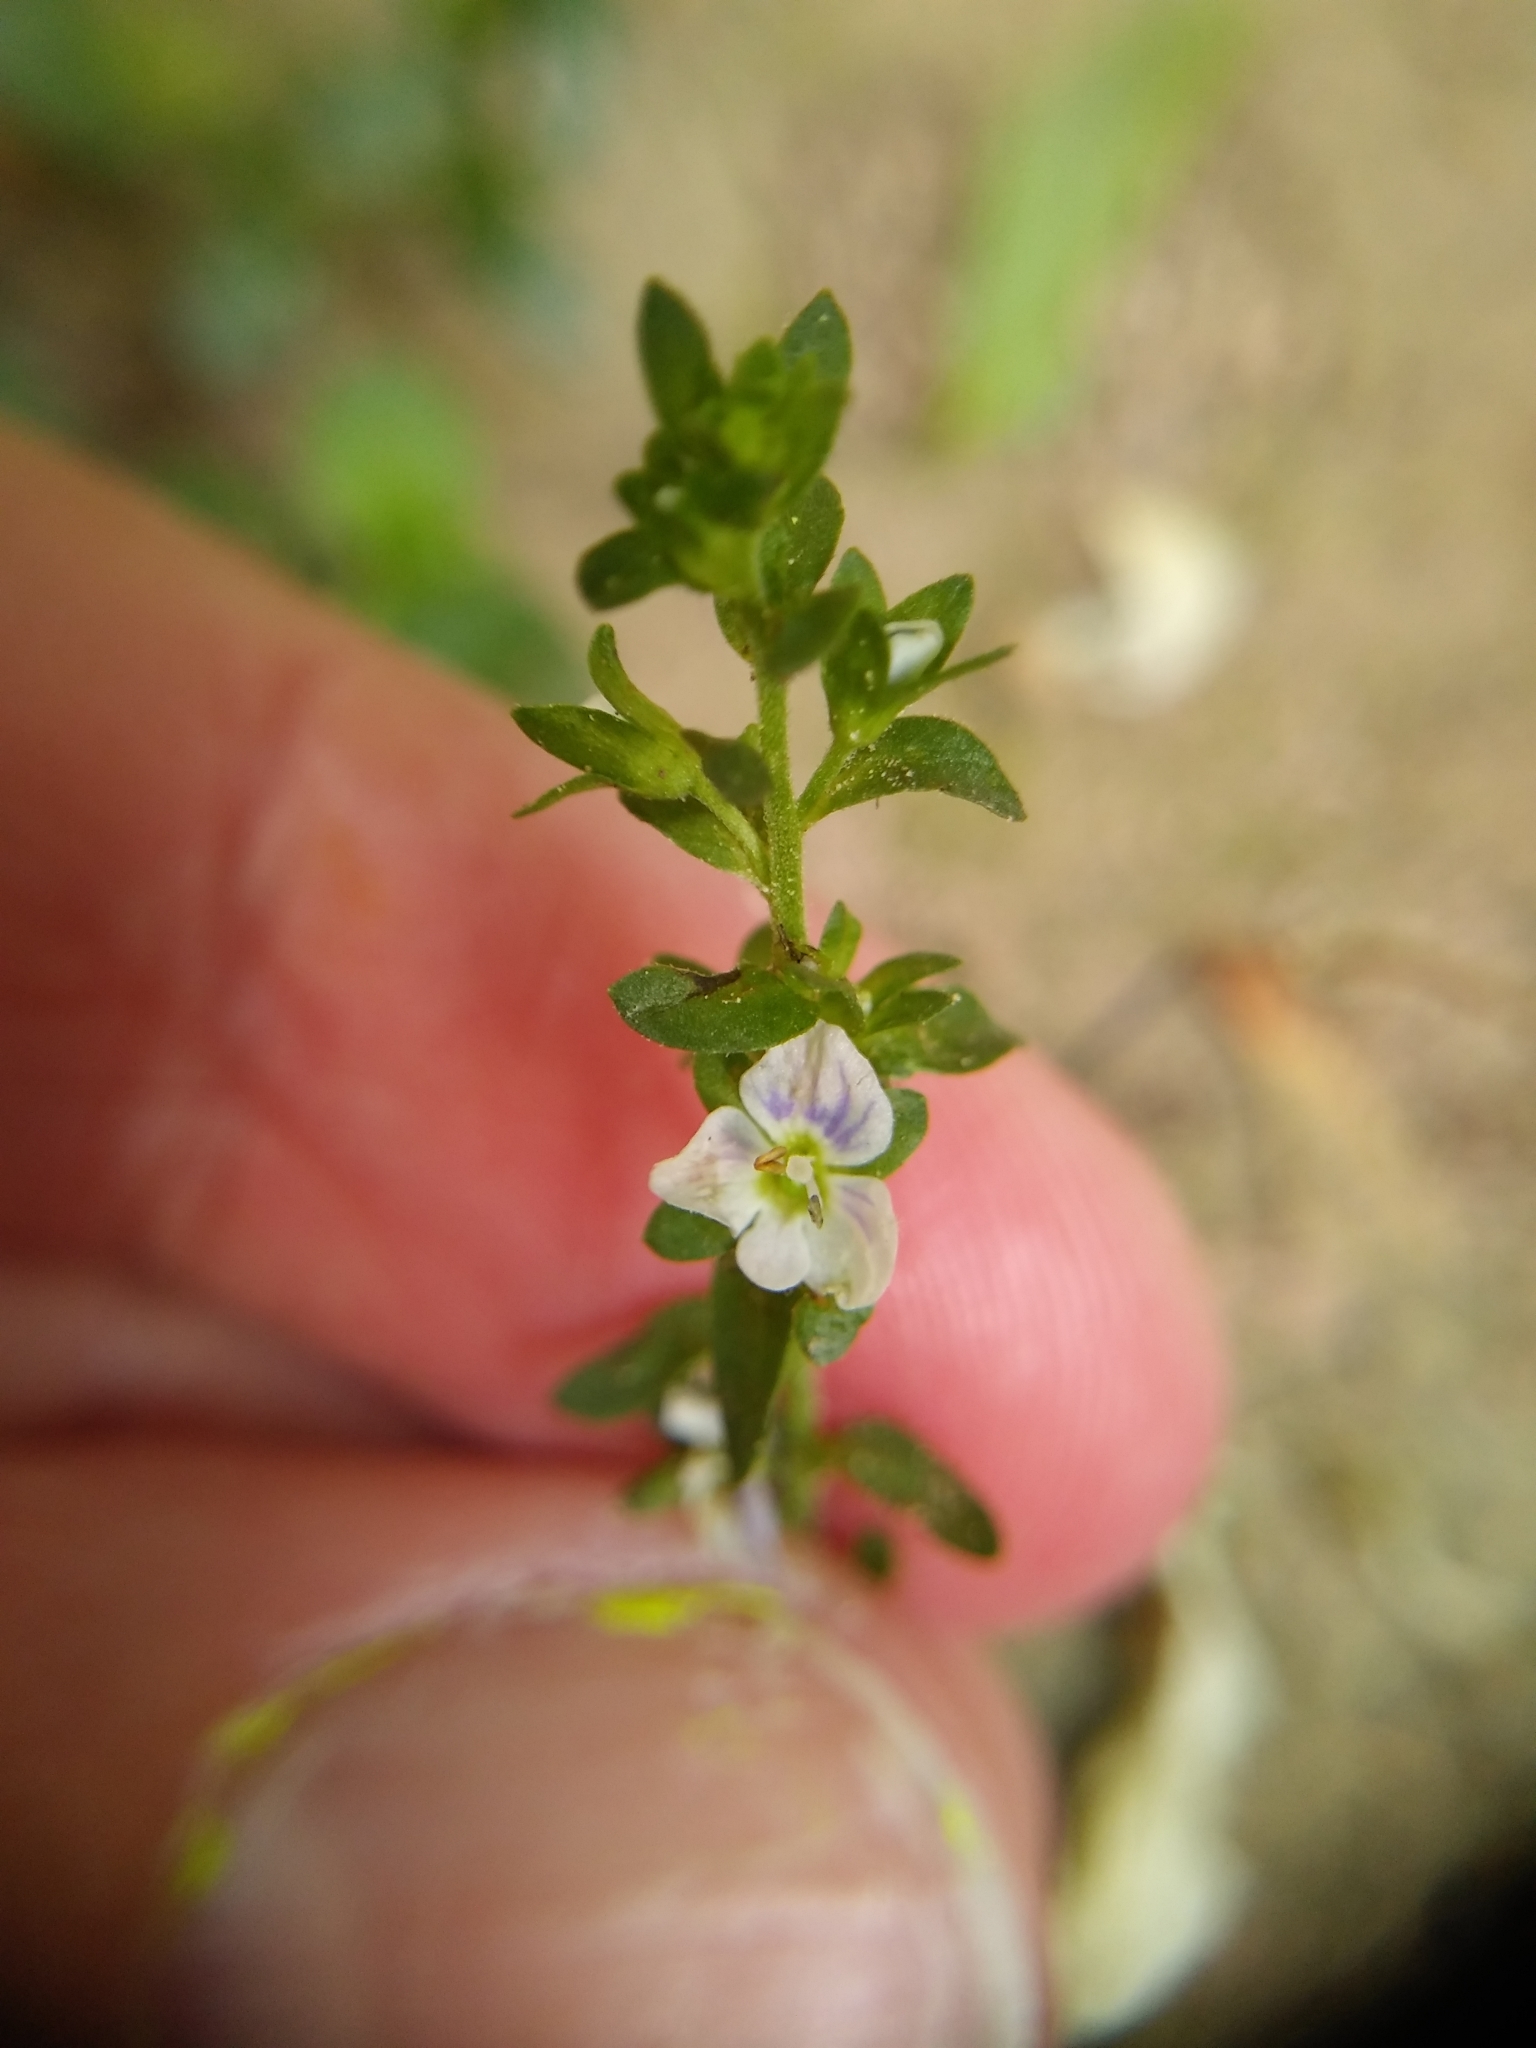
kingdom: Plantae
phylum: Tracheophyta
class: Magnoliopsida
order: Lamiales
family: Plantaginaceae
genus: Veronica
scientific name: Veronica serpyllifolia
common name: Thyme-leaved speedwell
